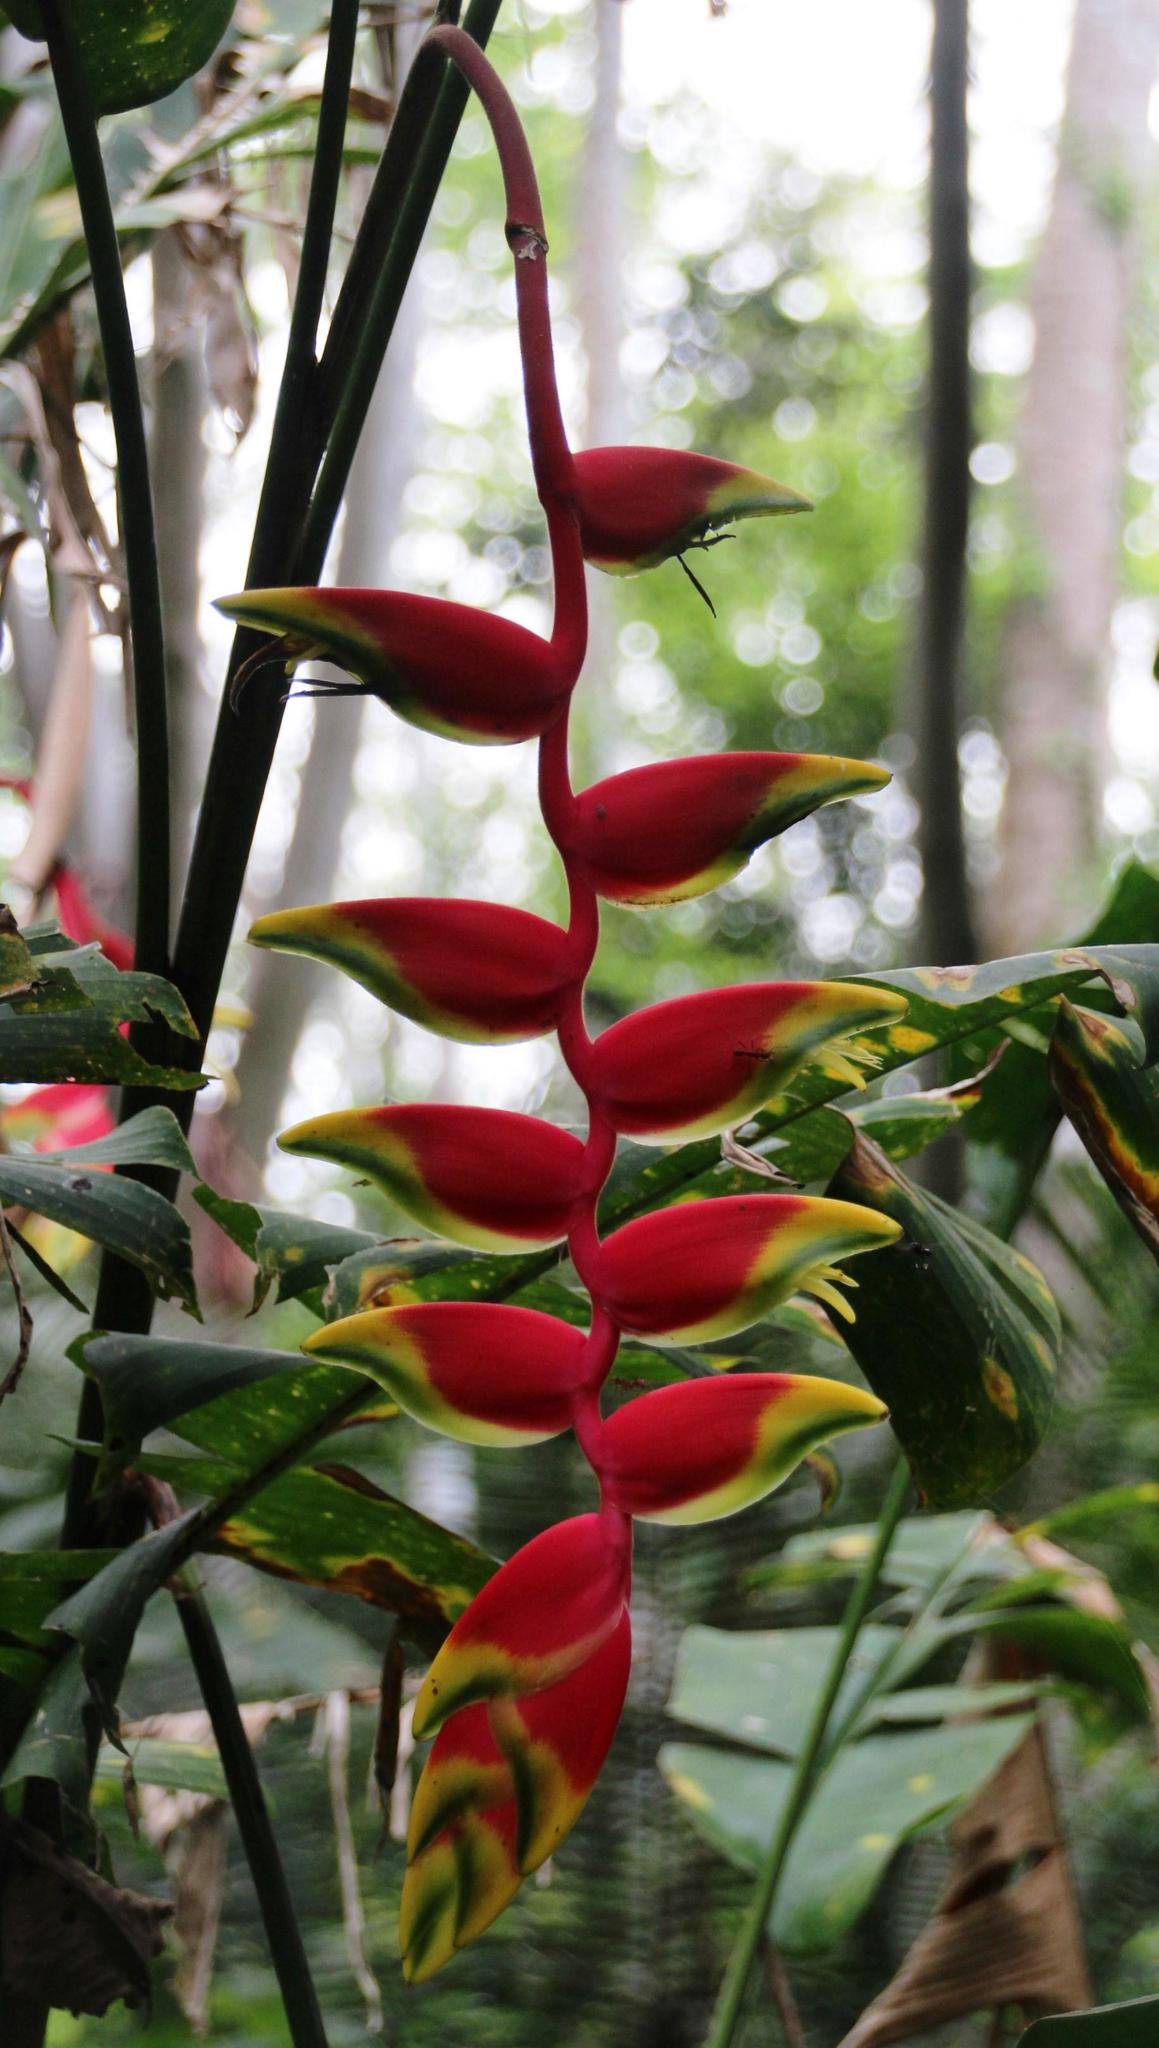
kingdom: Plantae
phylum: Tracheophyta
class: Liliopsida
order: Zingiberales
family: Heliconiaceae
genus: Heliconia
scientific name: Heliconia rostrata
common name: False bird of paradise
